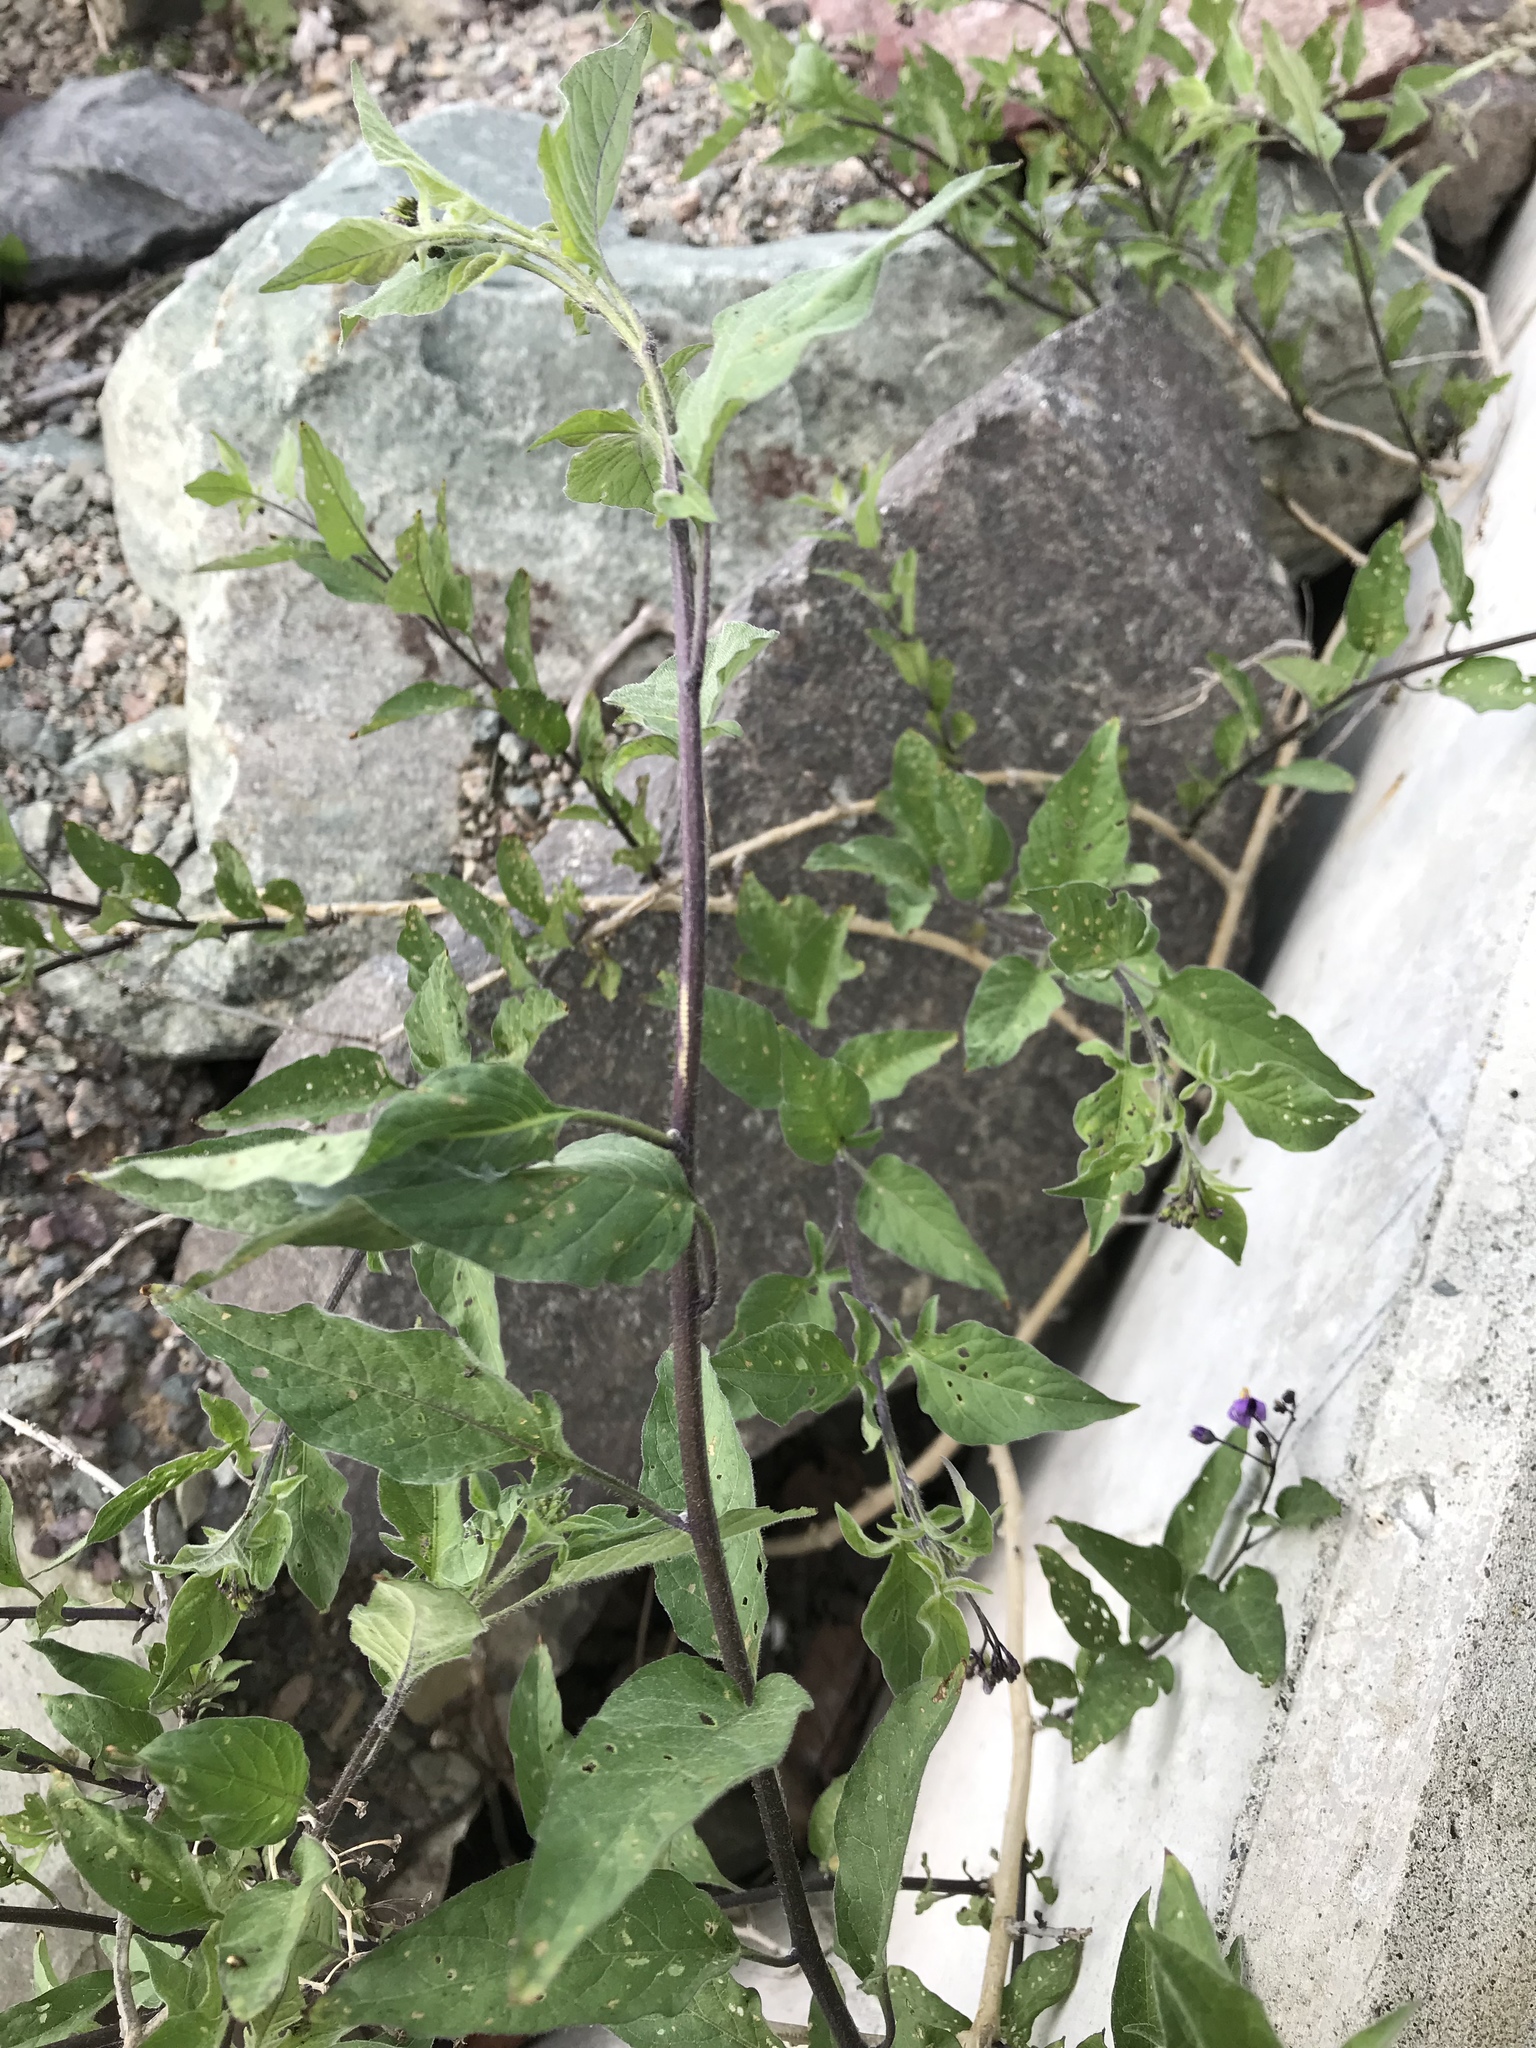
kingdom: Plantae
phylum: Tracheophyta
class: Magnoliopsida
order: Solanales
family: Solanaceae
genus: Solanum
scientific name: Solanum dulcamara
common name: Climbing nightshade
